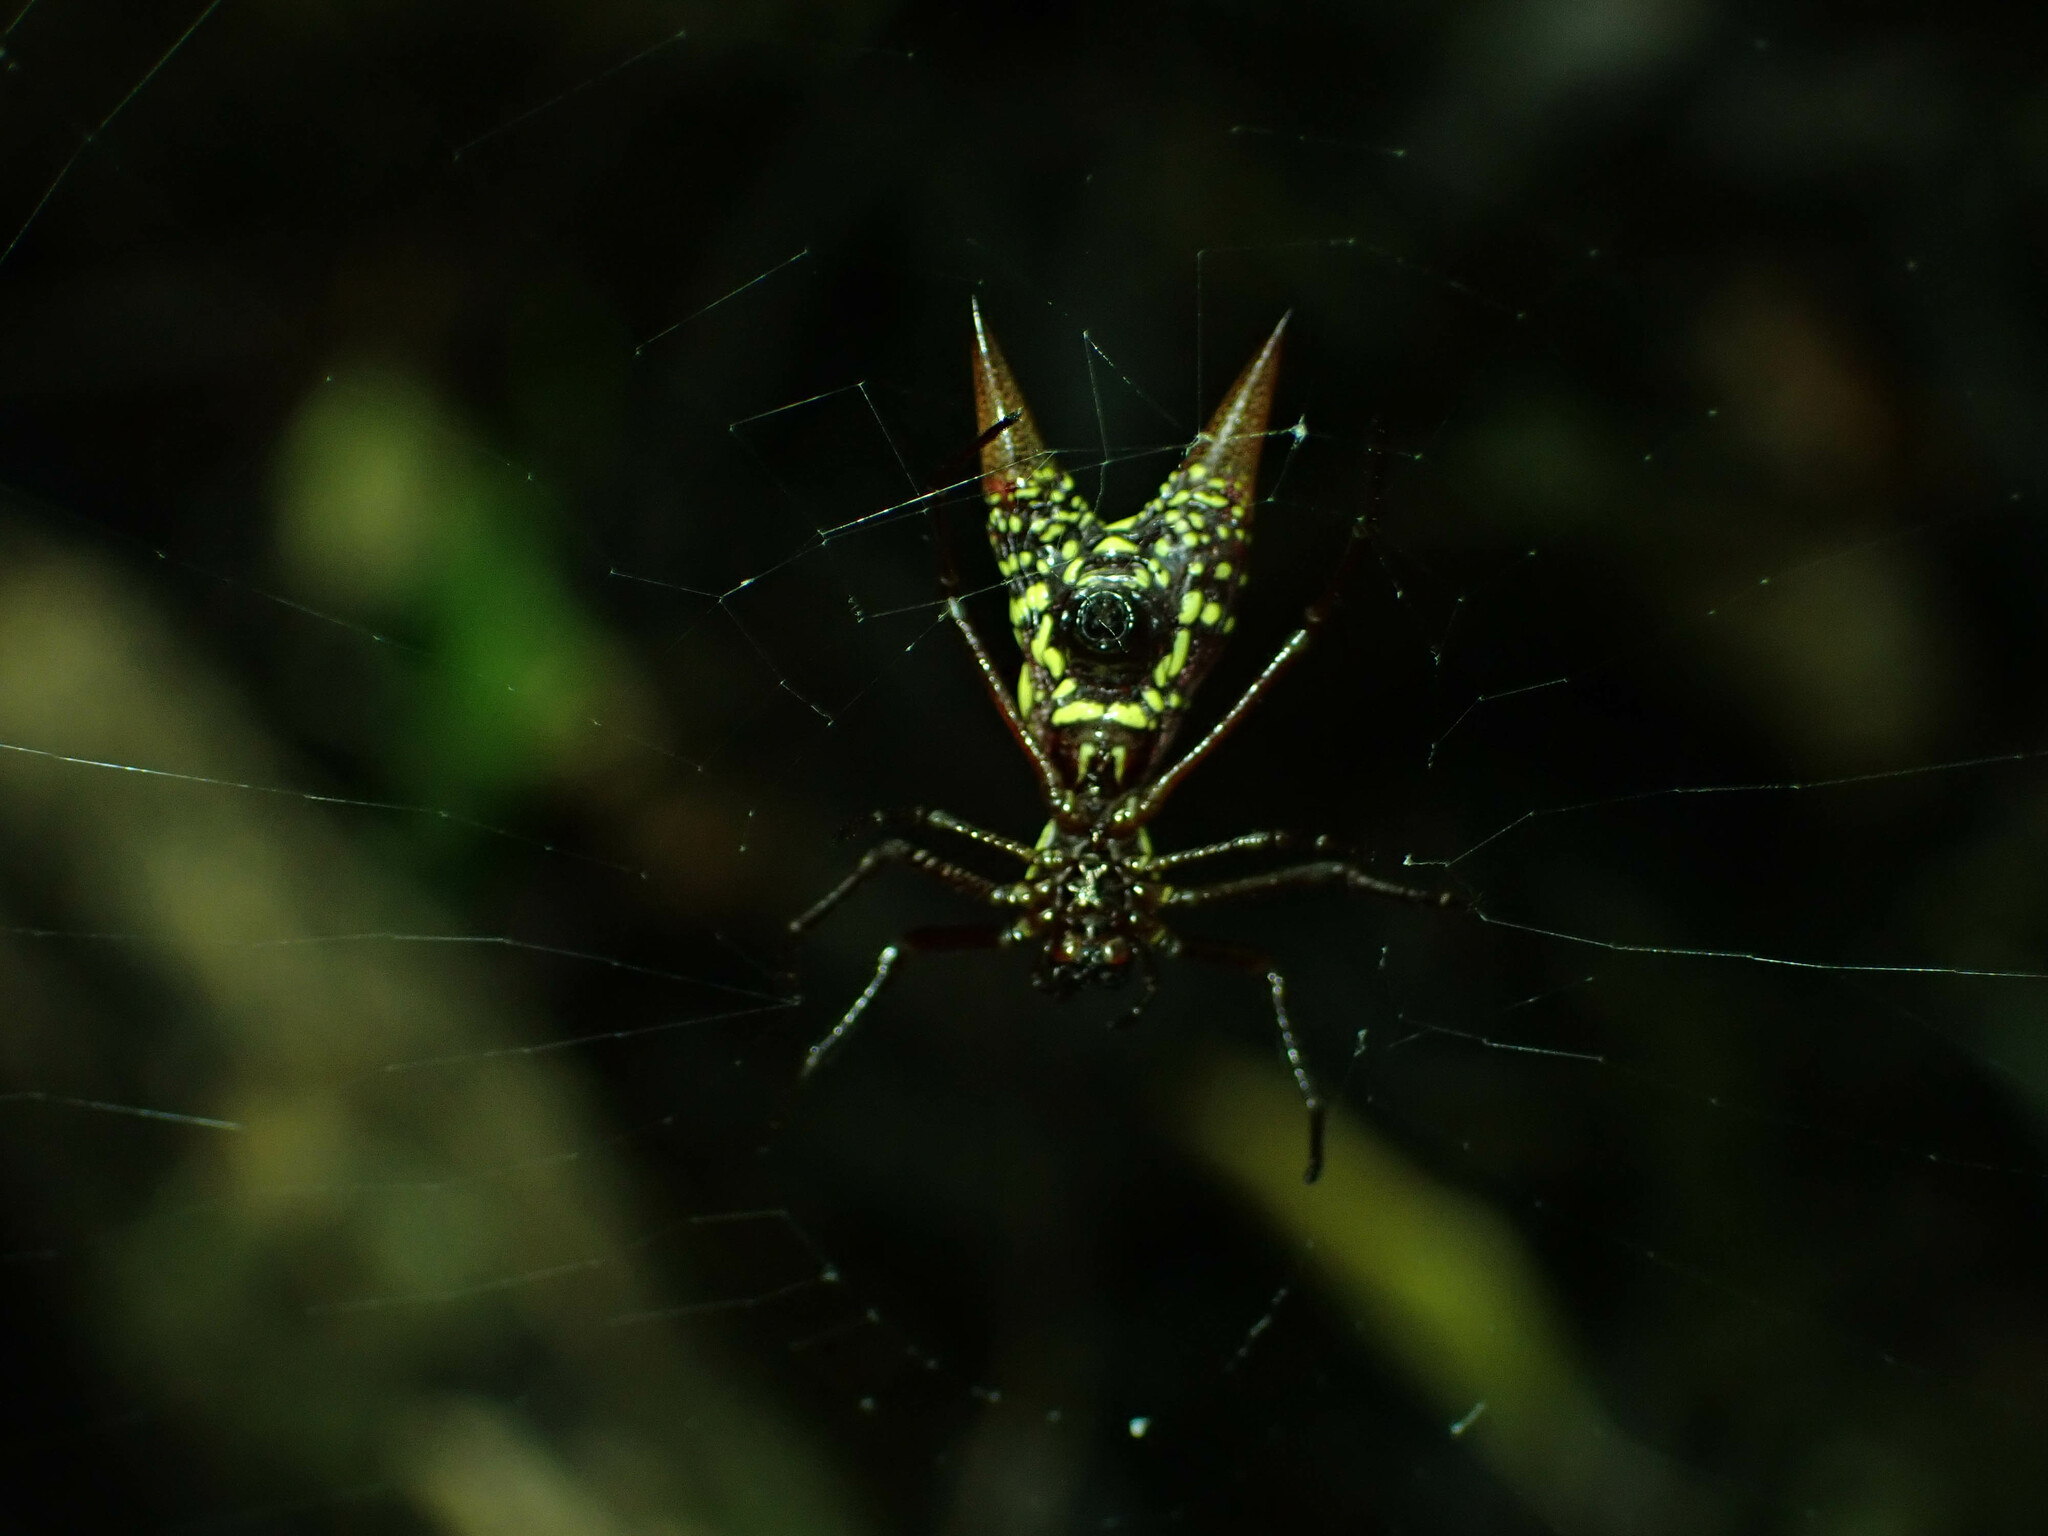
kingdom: Animalia
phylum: Arthropoda
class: Arachnida
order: Araneae
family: Araneidae
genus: Micrathena
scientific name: Micrathena sexspinosa
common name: Orb weavers
